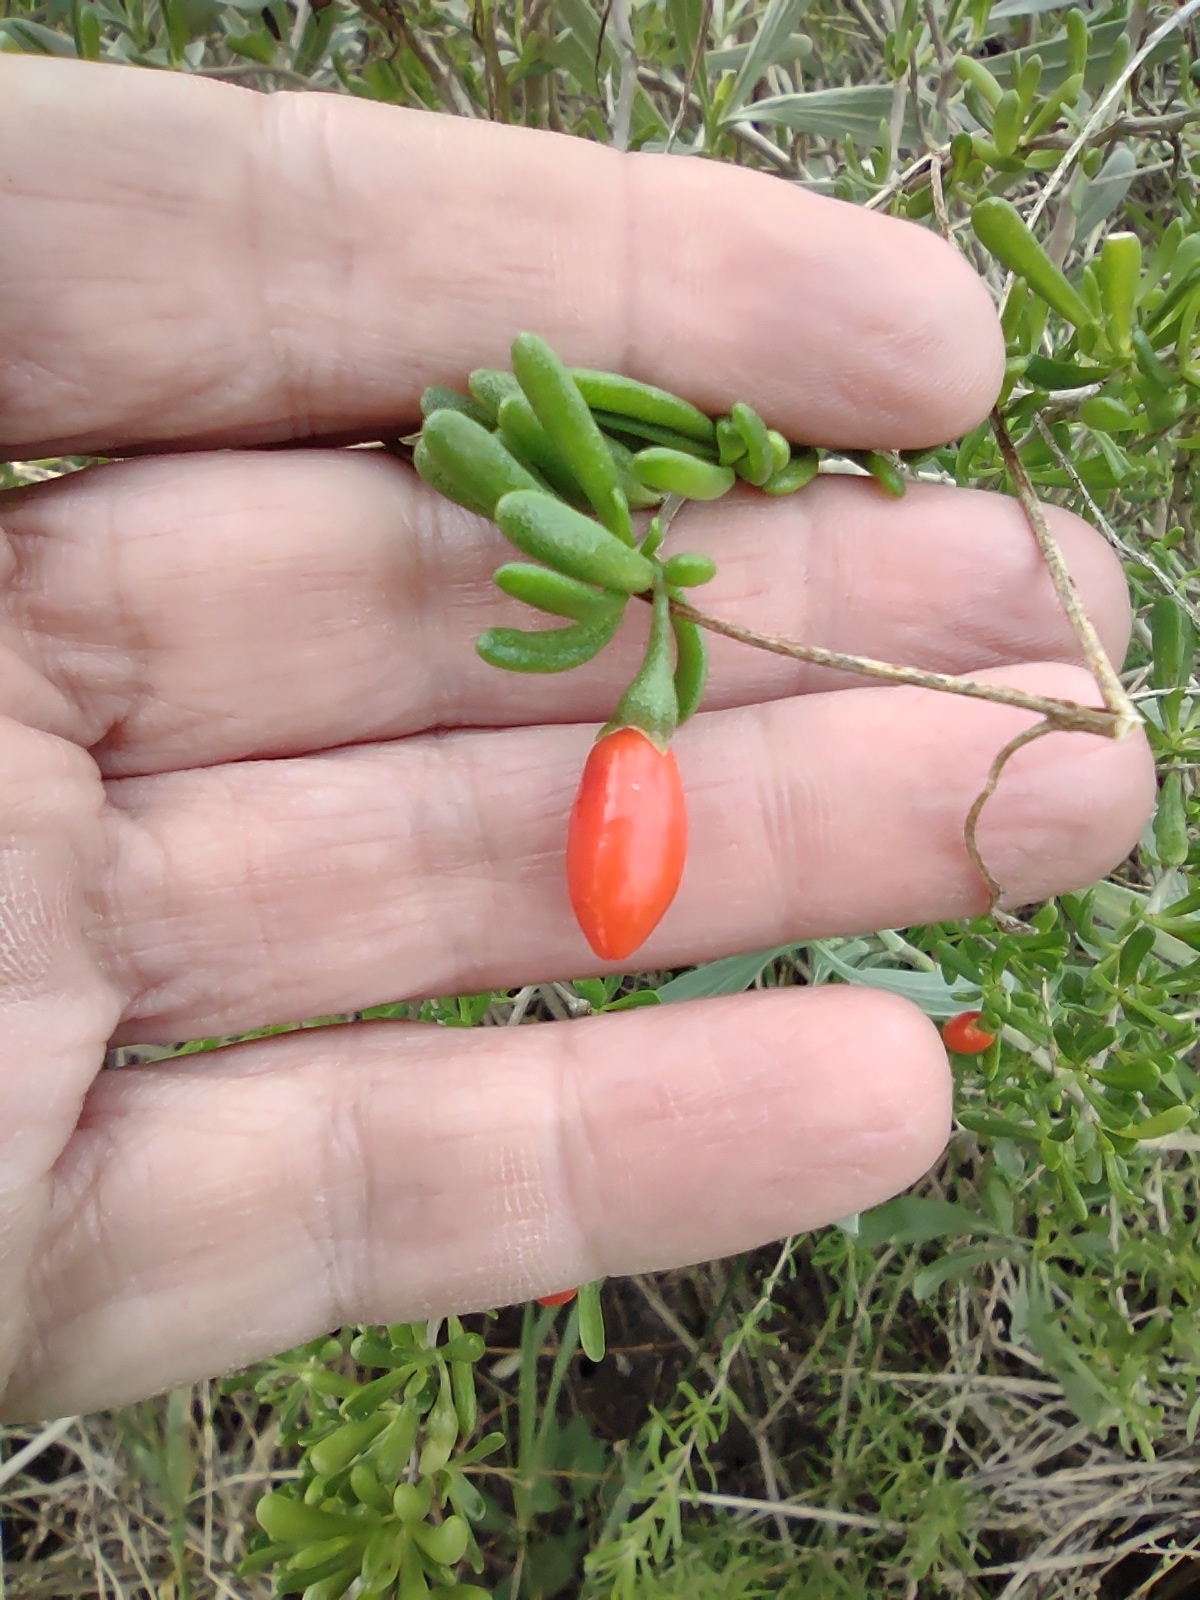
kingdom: Plantae
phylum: Tracheophyta
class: Magnoliopsida
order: Solanales
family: Solanaceae
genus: Lycium
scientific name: Lycium carolinianum
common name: Christmasberry
